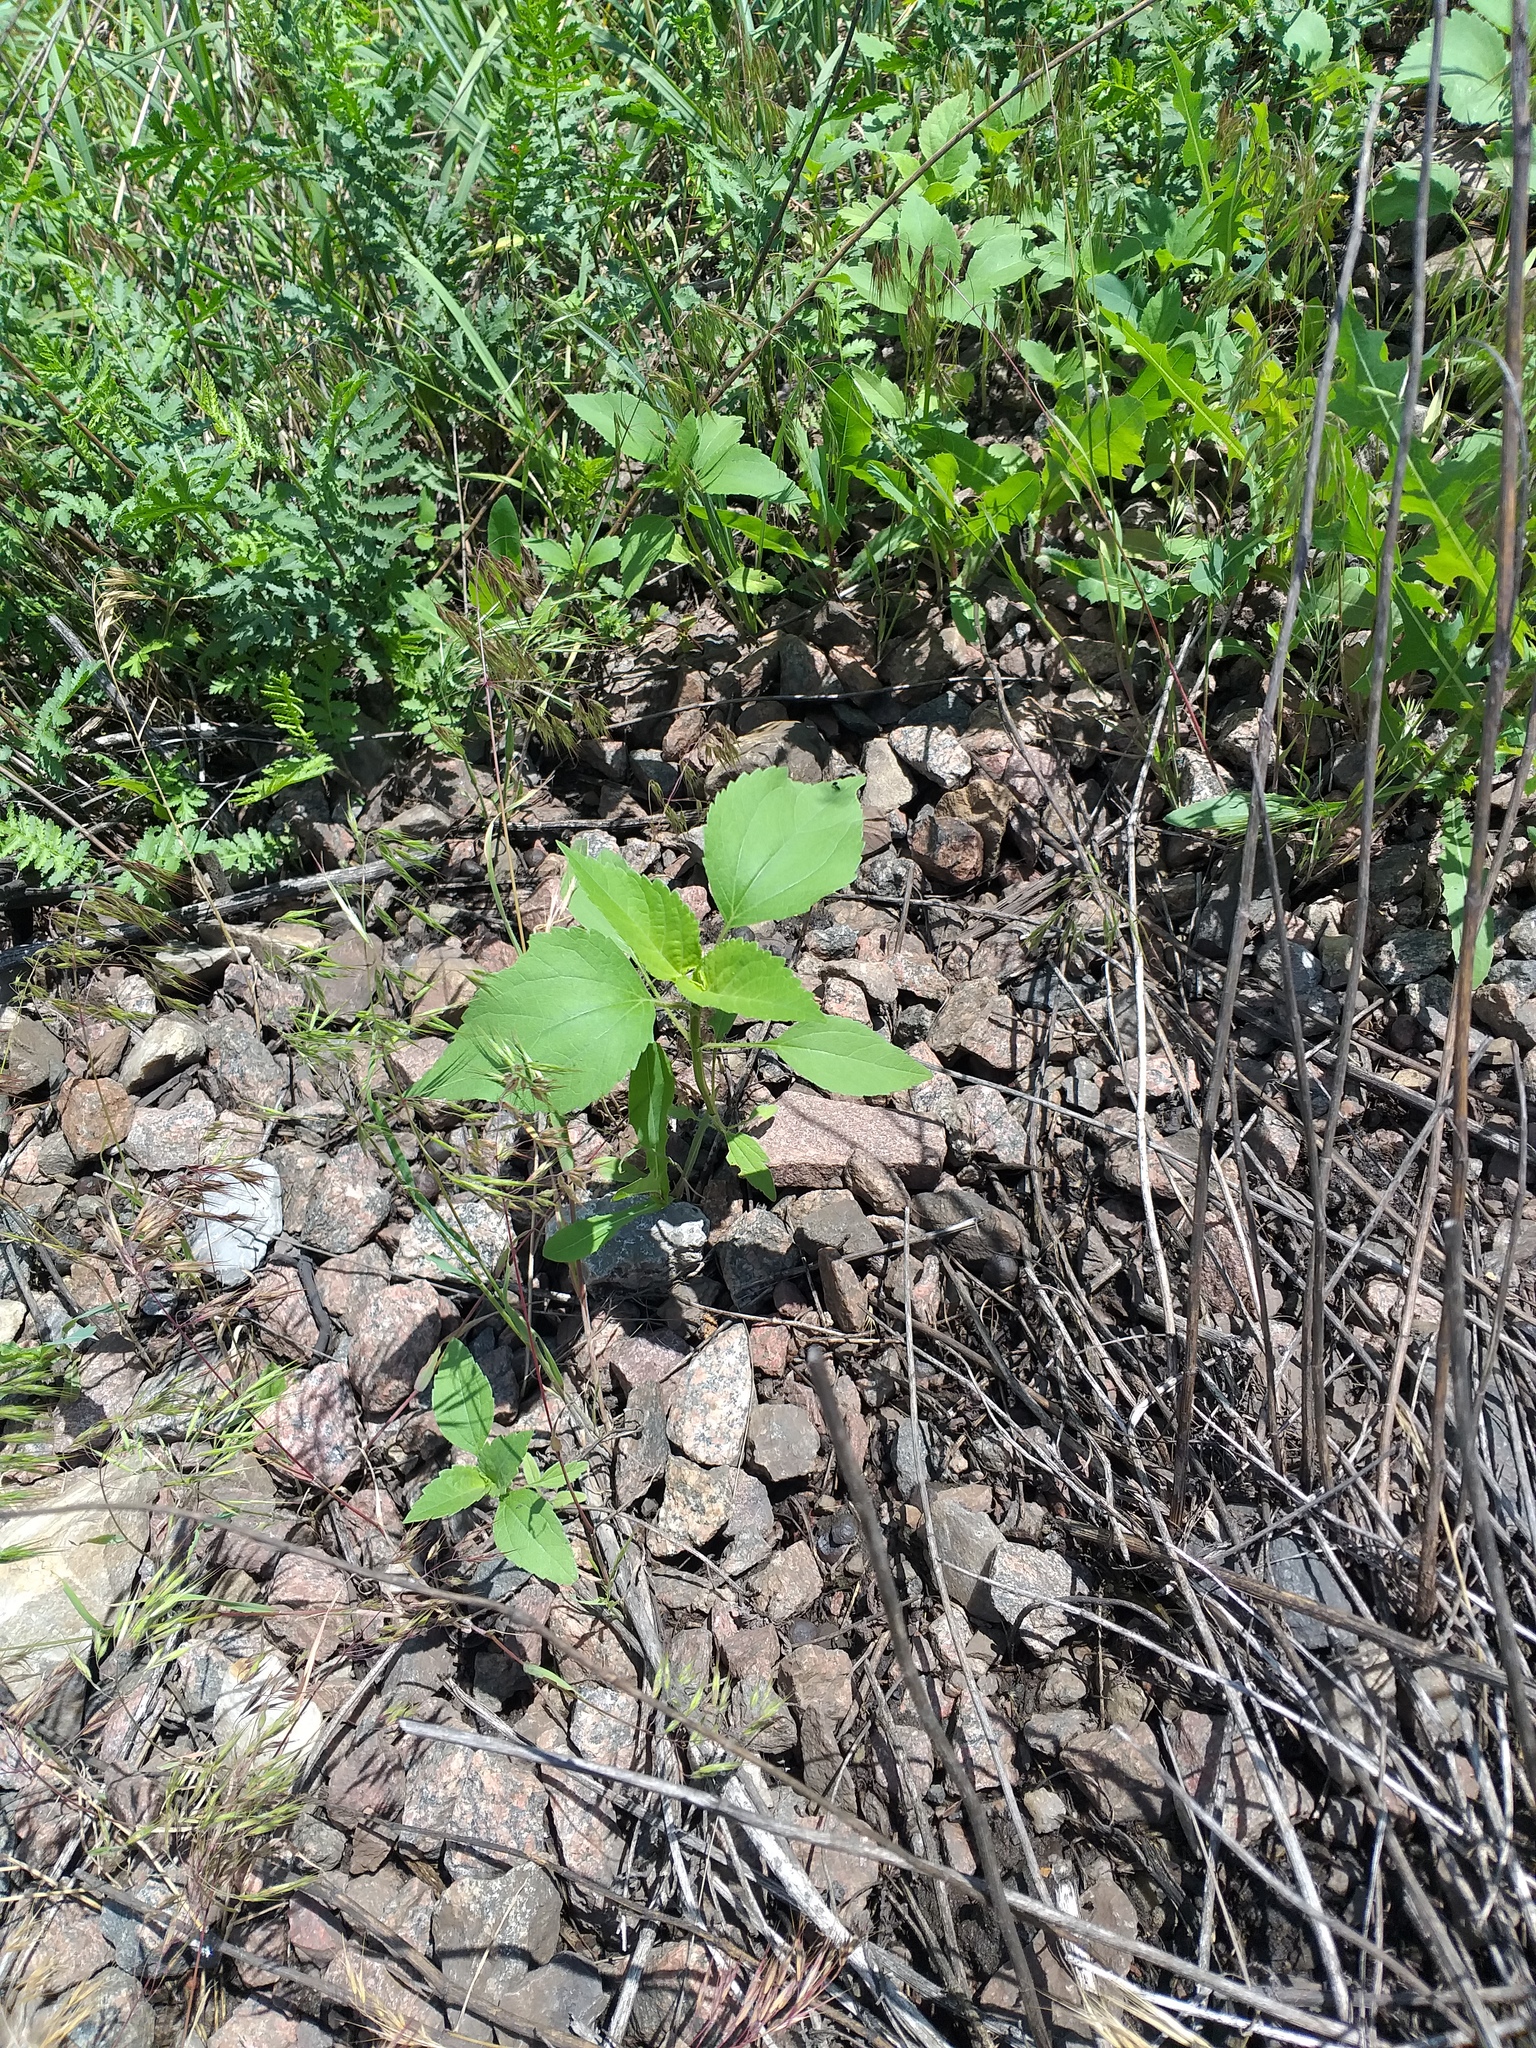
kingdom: Plantae
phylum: Tracheophyta
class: Magnoliopsida
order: Asterales
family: Asteraceae
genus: Cyclachaena
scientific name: Cyclachaena xanthiifolia
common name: Giant sumpweed
